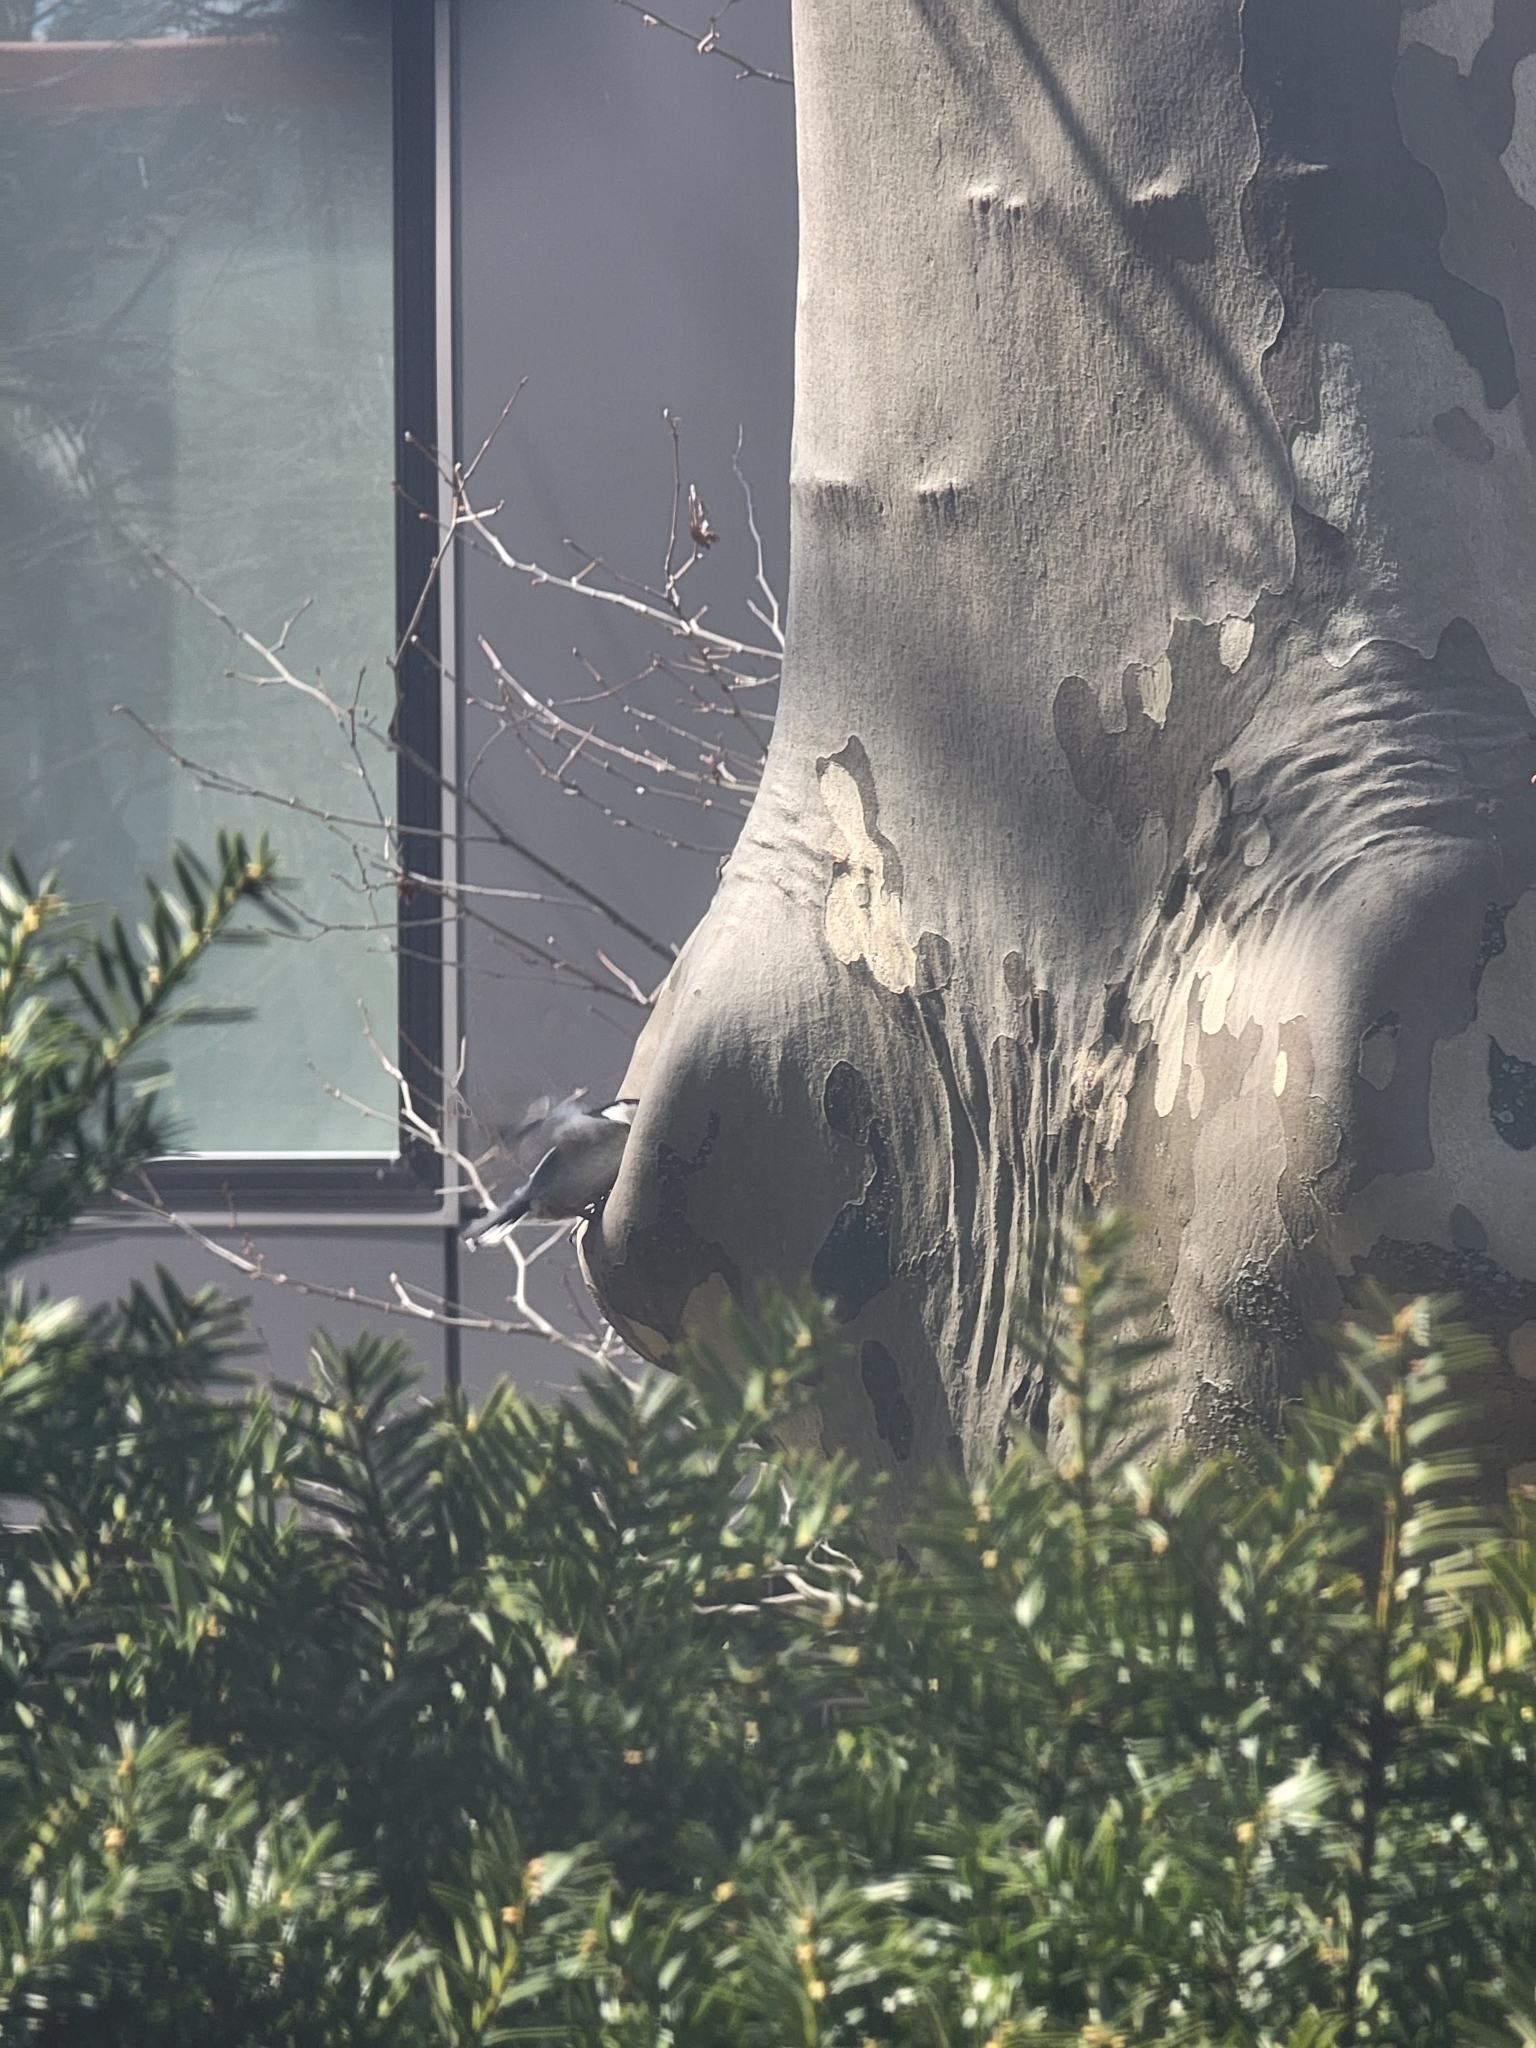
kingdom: Animalia
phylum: Chordata
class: Aves
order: Passeriformes
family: Sittidae
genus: Sitta
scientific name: Sitta carolinensis
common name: White-breasted nuthatch
